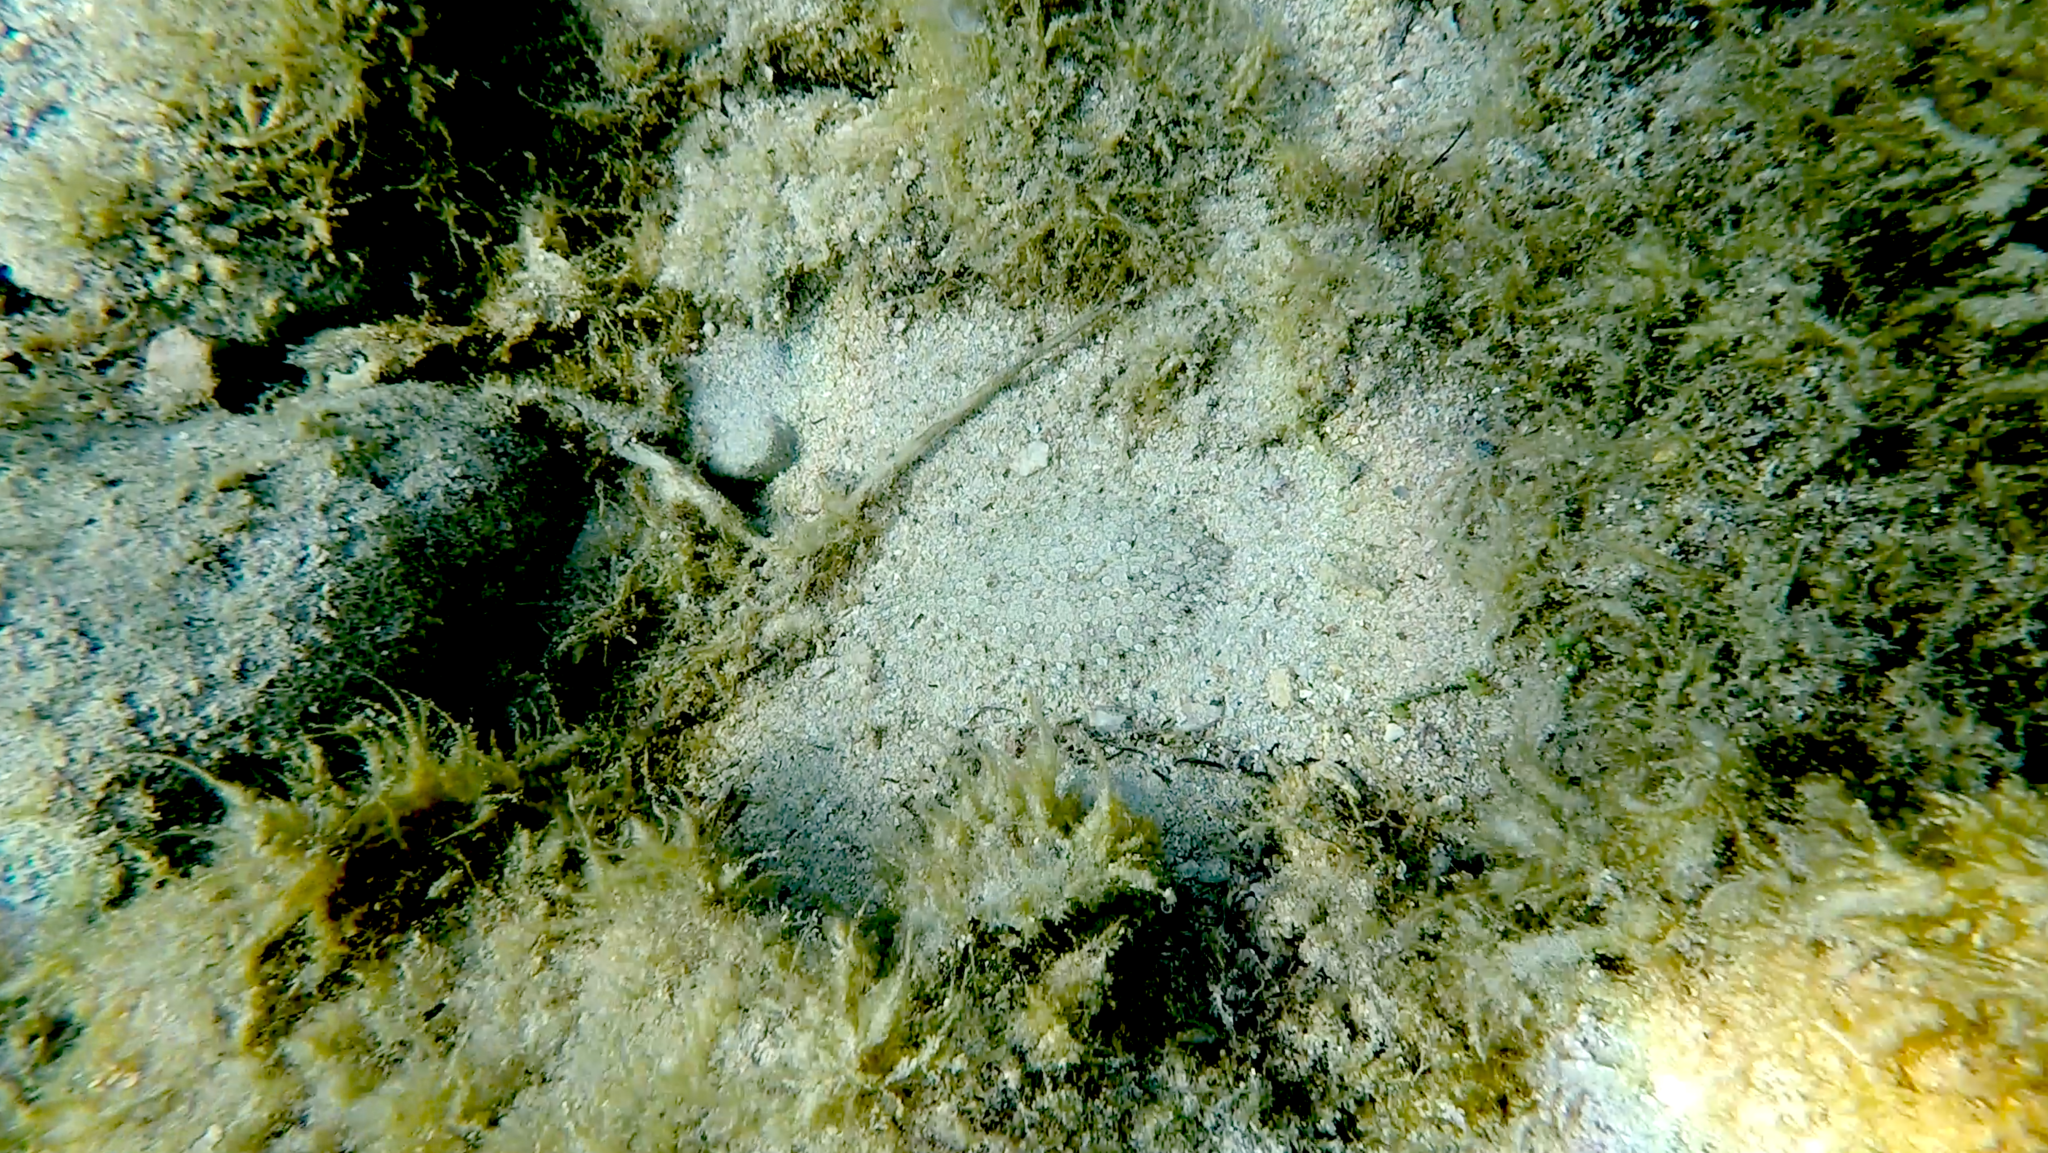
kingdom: Animalia
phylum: Chordata
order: Pleuronectiformes
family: Bothidae
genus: Bothus
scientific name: Bothus podas
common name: Wide-eyed flounder
